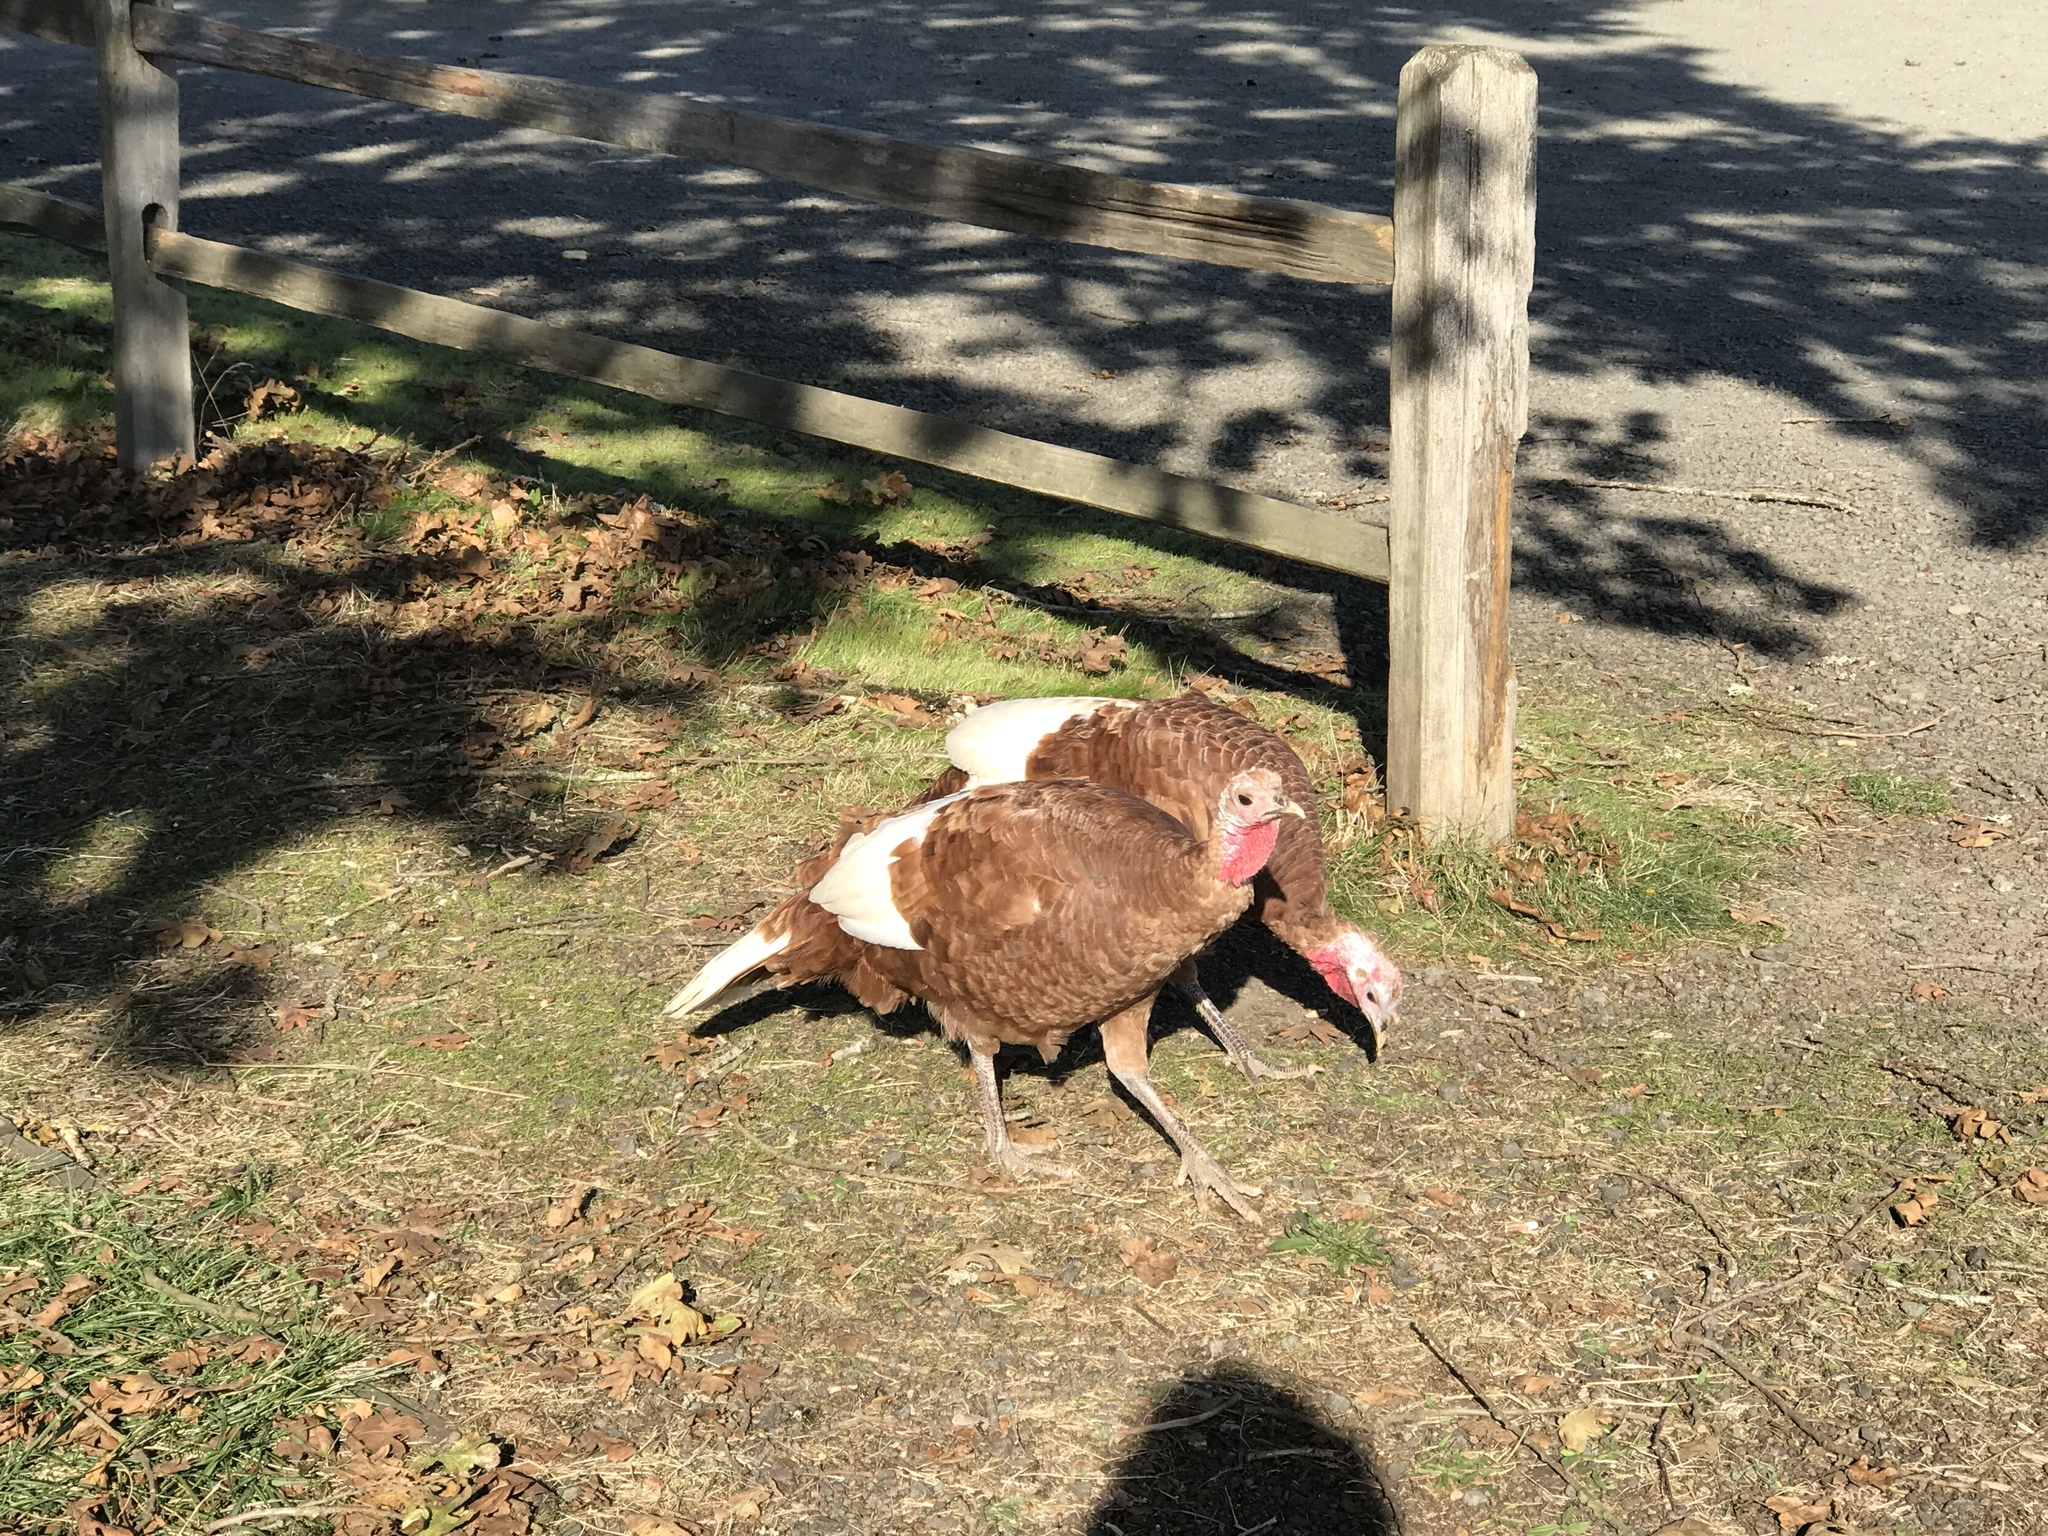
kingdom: Animalia
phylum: Chordata
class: Aves
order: Galliformes
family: Phasianidae
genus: Meleagris
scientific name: Meleagris gallopavo
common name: Wild turkey
